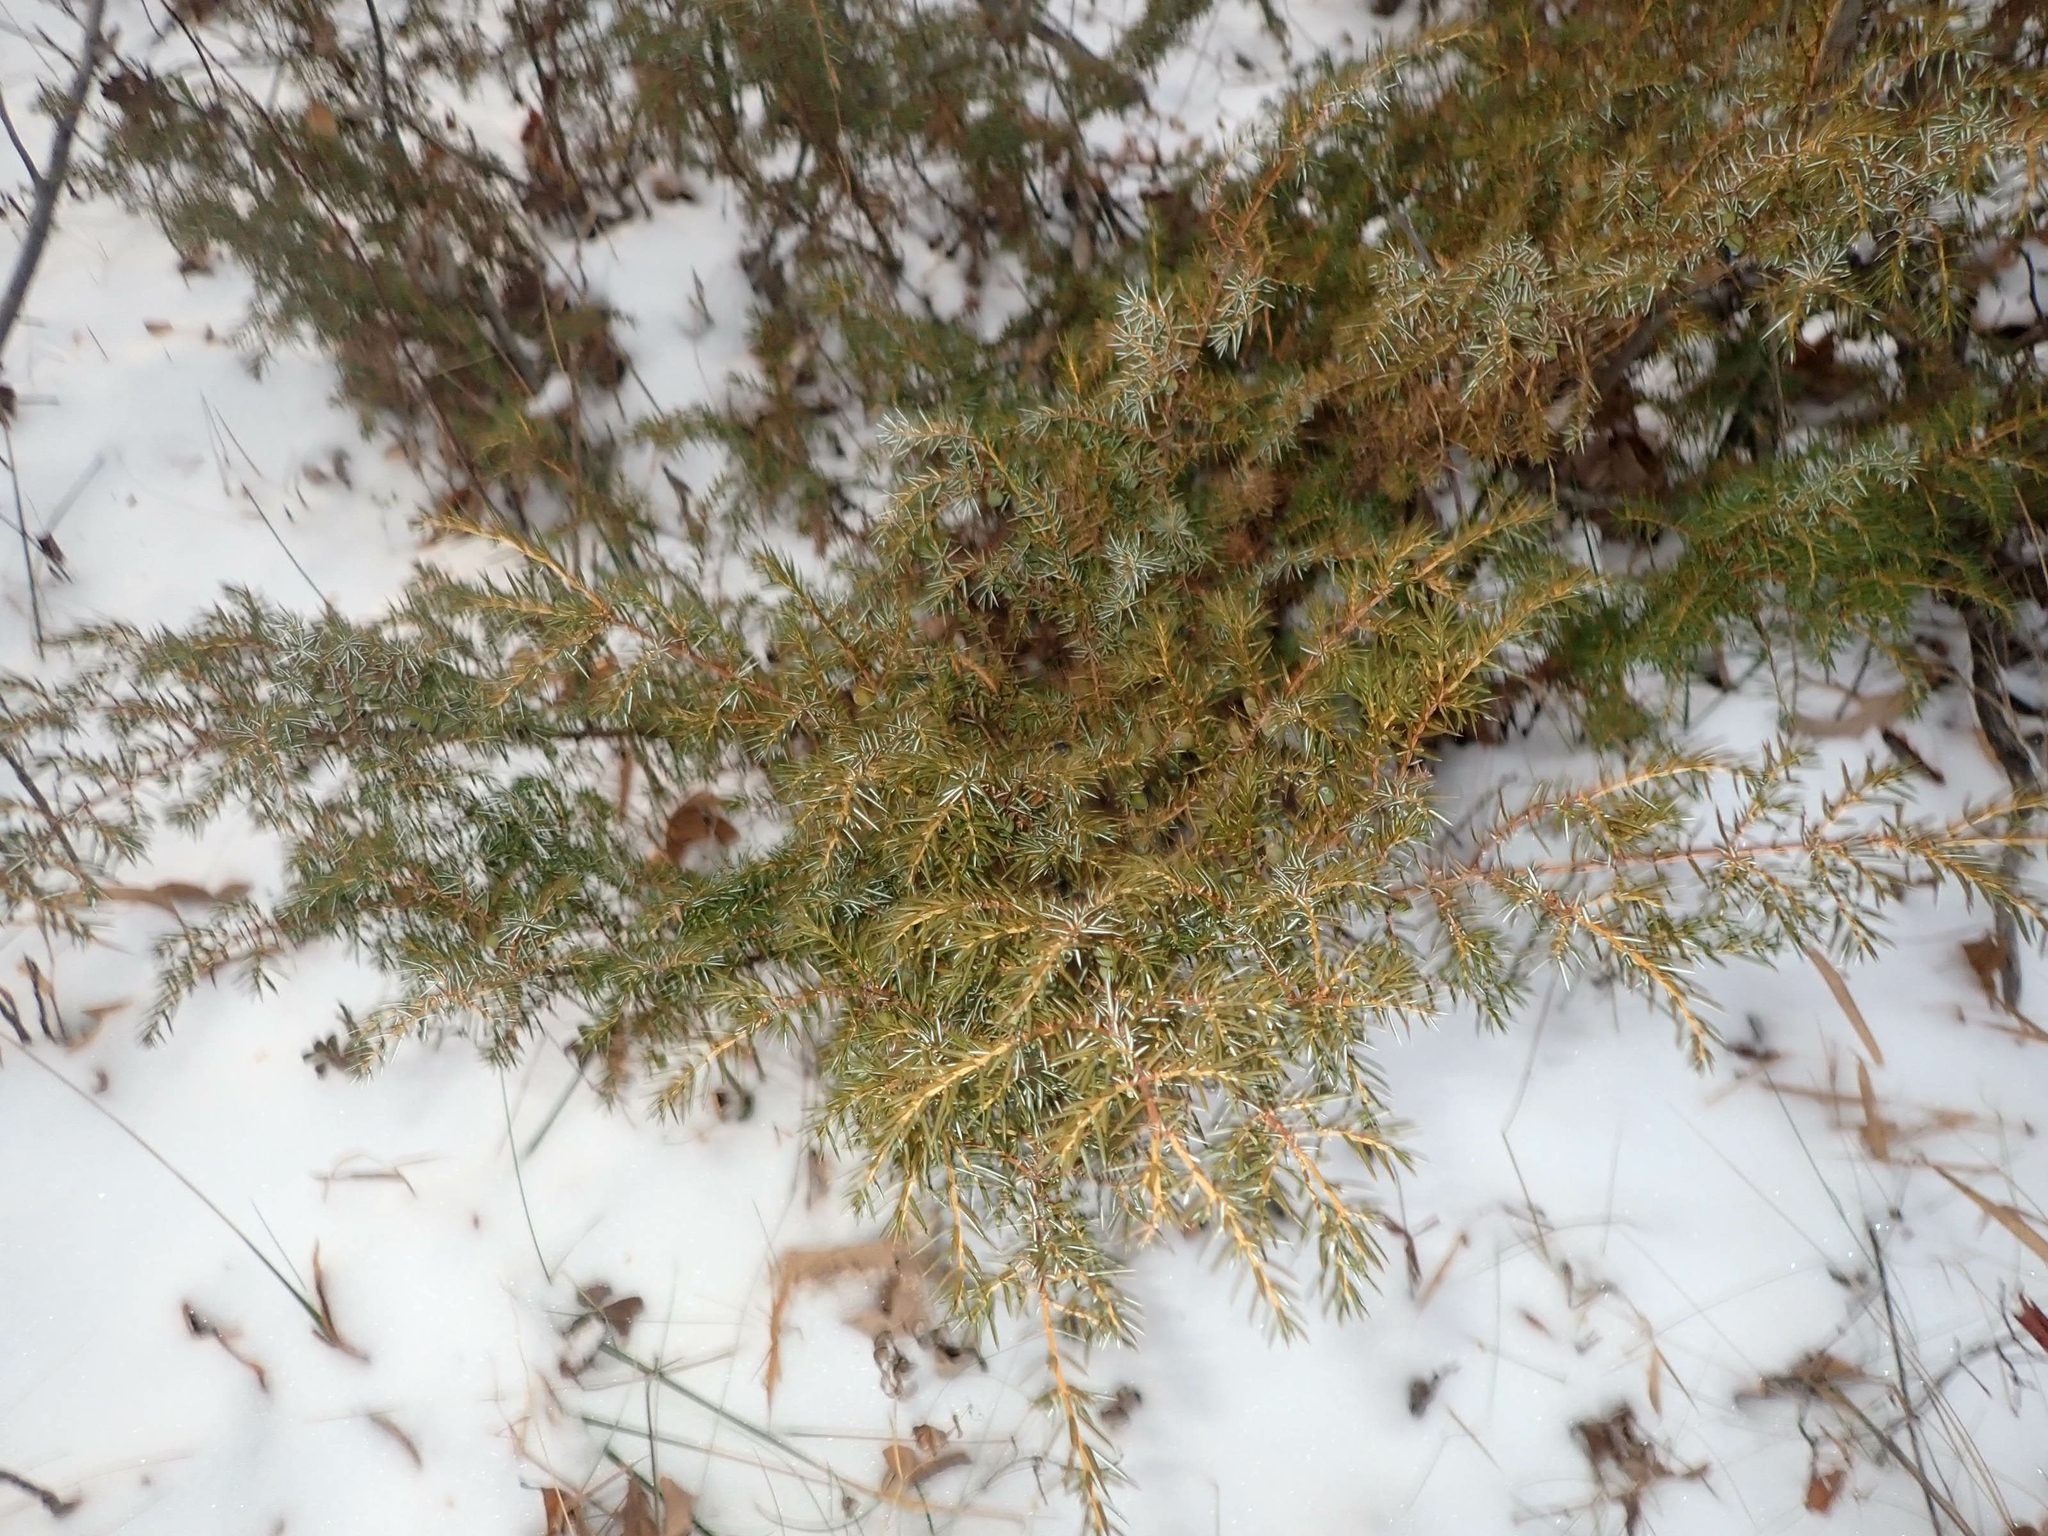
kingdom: Plantae
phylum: Tracheophyta
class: Pinopsida
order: Pinales
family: Cupressaceae
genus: Juniperus
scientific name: Juniperus communis
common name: Common juniper
